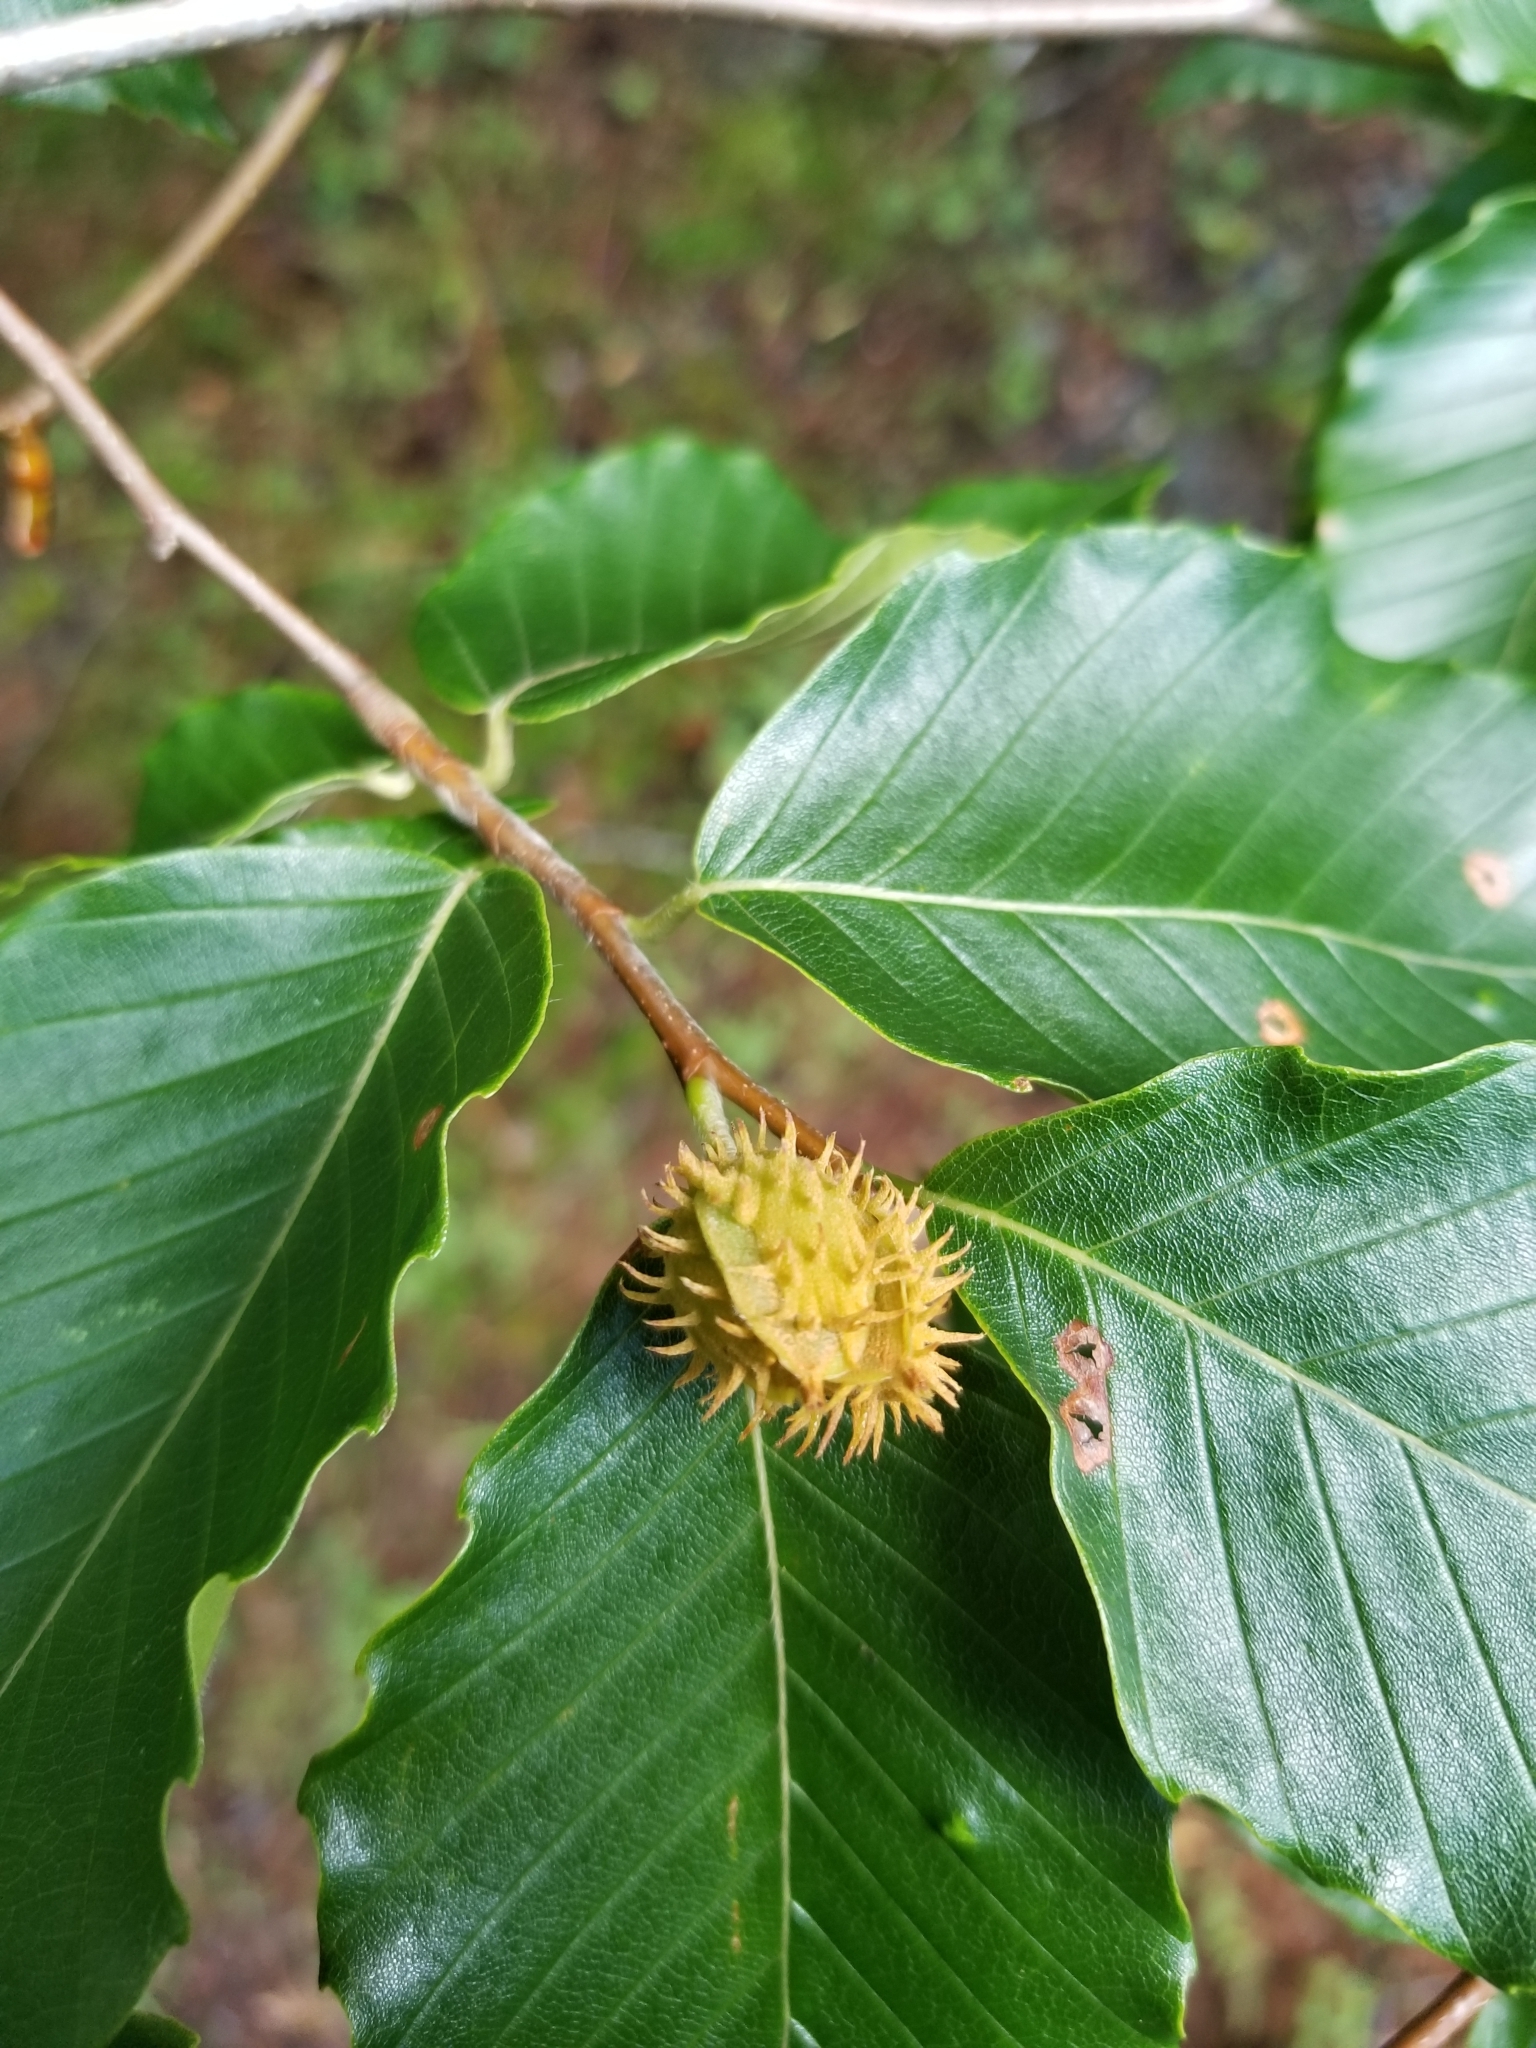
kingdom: Plantae
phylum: Tracheophyta
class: Magnoliopsida
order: Fagales
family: Fagaceae
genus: Fagus
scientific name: Fagus grandifolia
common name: American beech
